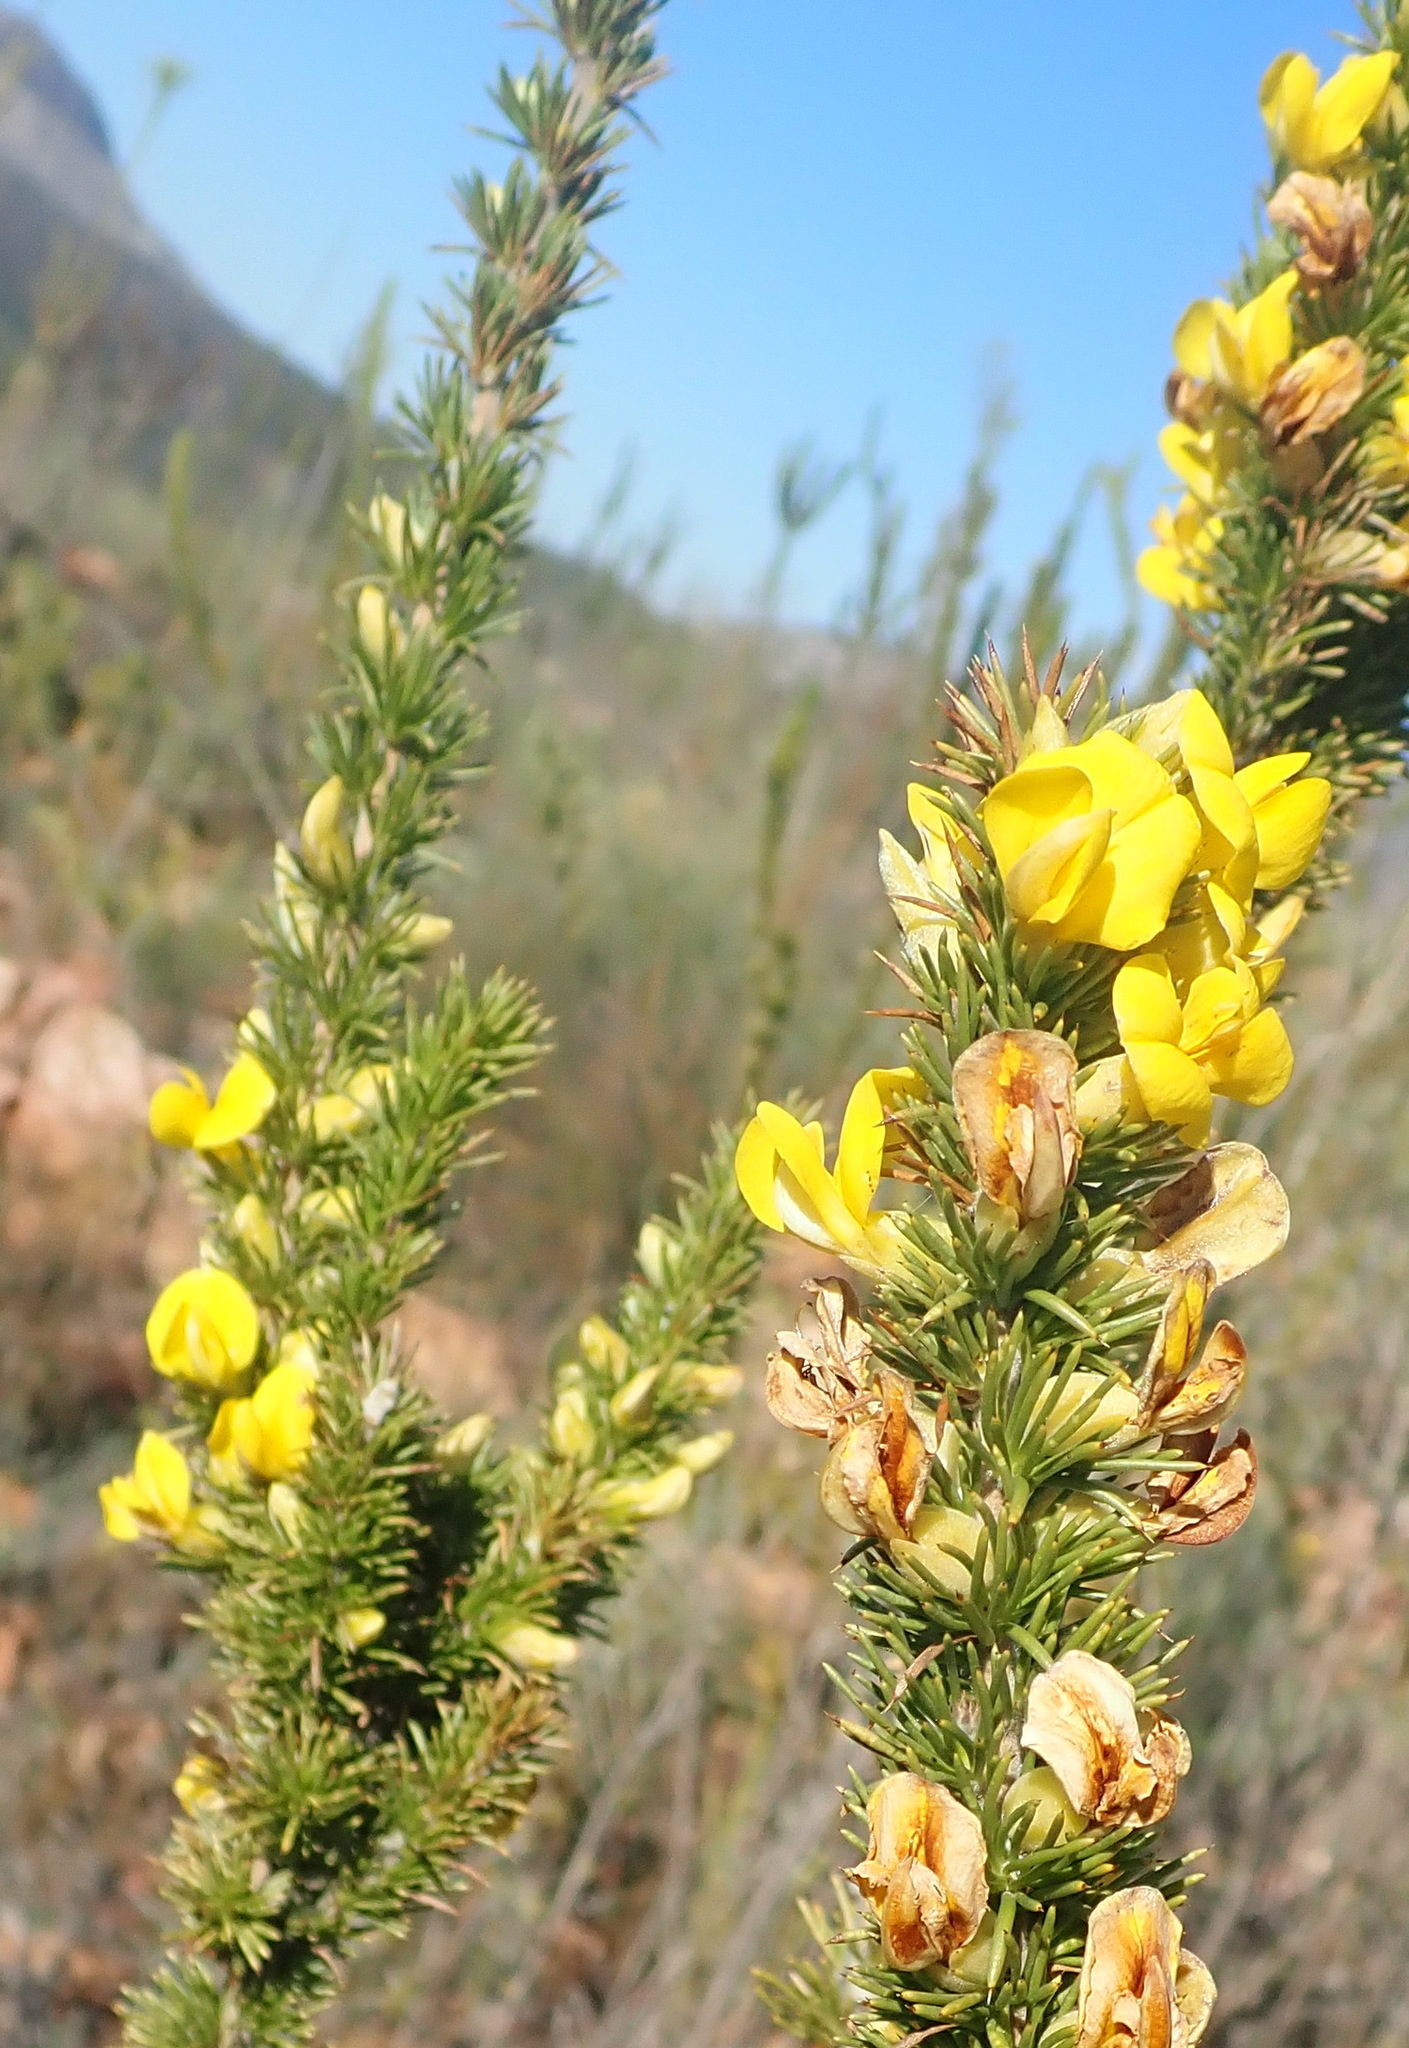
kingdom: Plantae
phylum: Tracheophyta
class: Magnoliopsida
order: Fabales
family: Fabaceae
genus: Aspalathus
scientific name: Aspalathus sceptrumaureum
